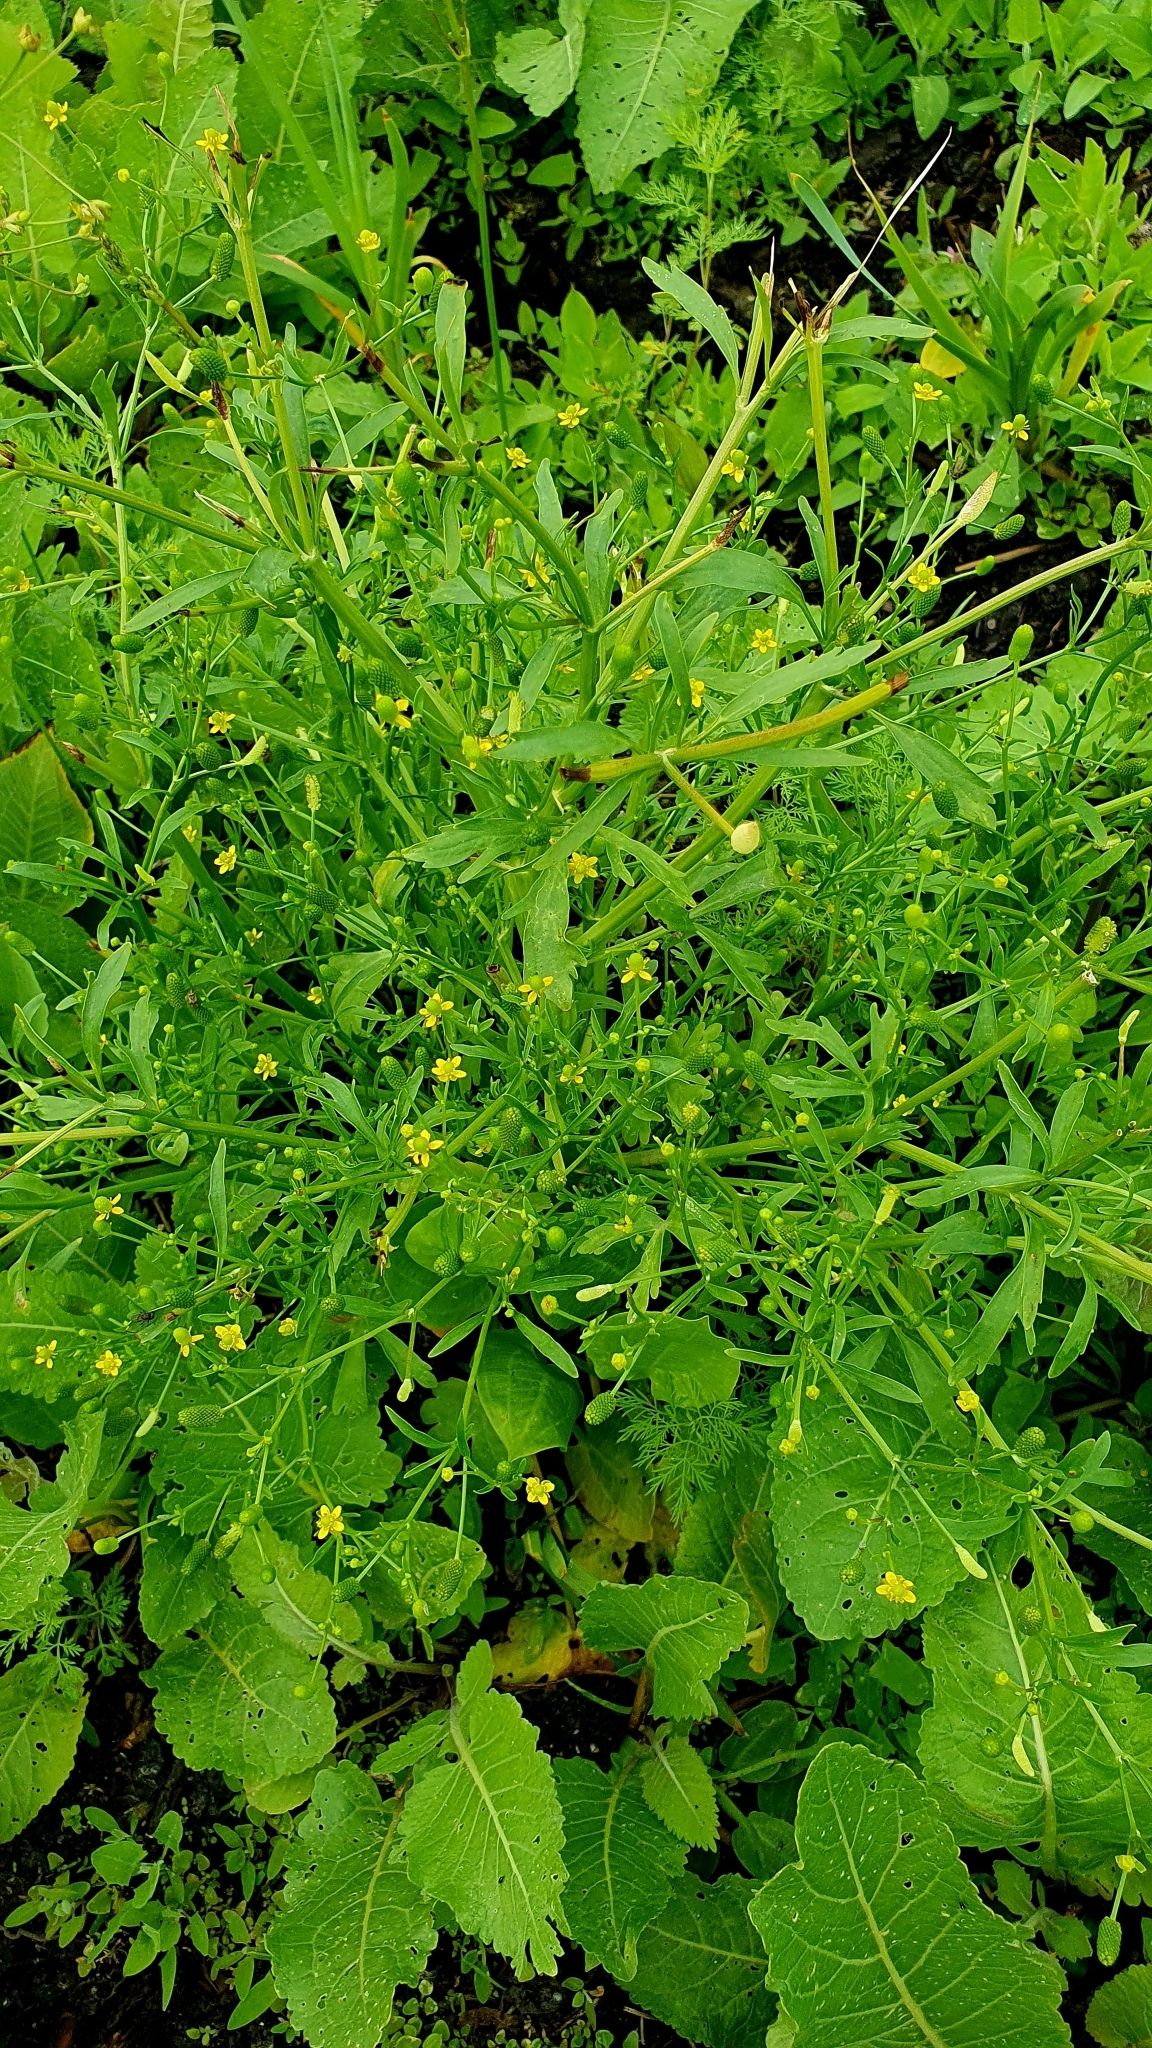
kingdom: Plantae
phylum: Tracheophyta
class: Magnoliopsida
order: Ranunculales
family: Ranunculaceae
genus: Ranunculus
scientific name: Ranunculus sceleratus
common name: Celery-leaved buttercup
